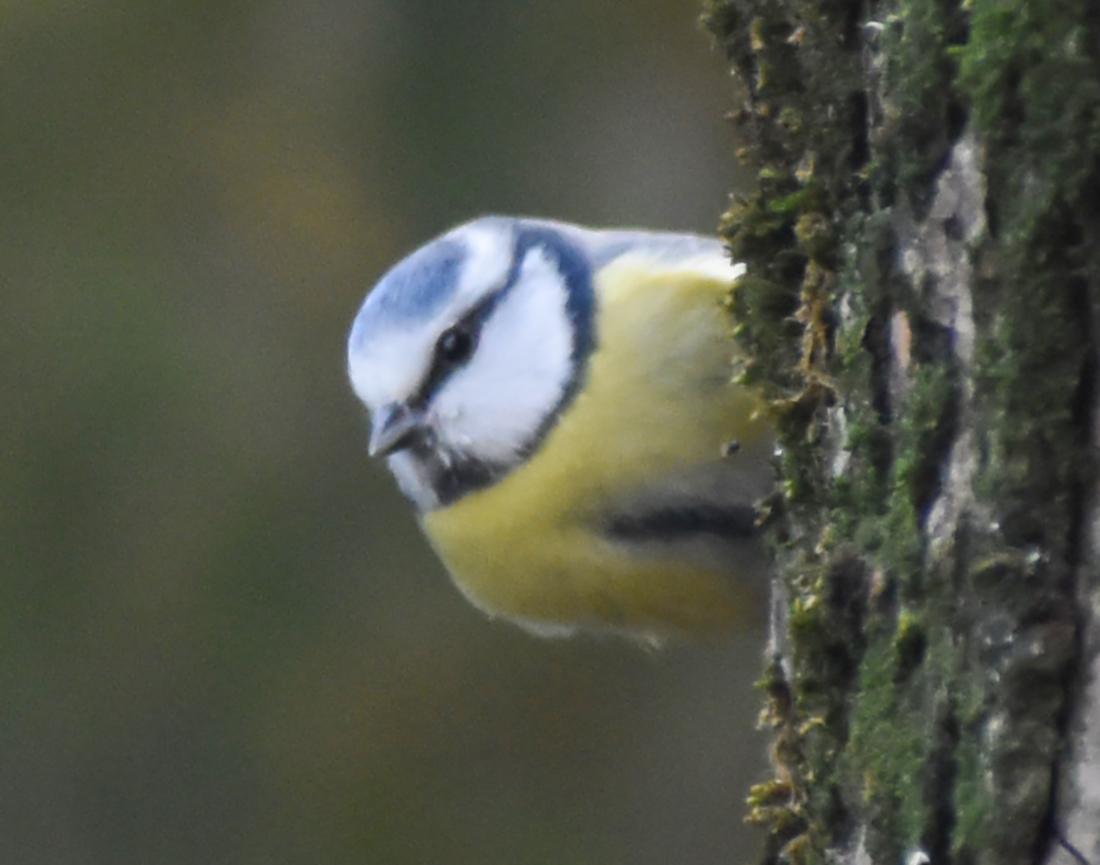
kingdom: Animalia
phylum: Chordata
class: Aves
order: Passeriformes
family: Paridae
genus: Cyanistes
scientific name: Cyanistes caeruleus
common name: Eurasian blue tit
